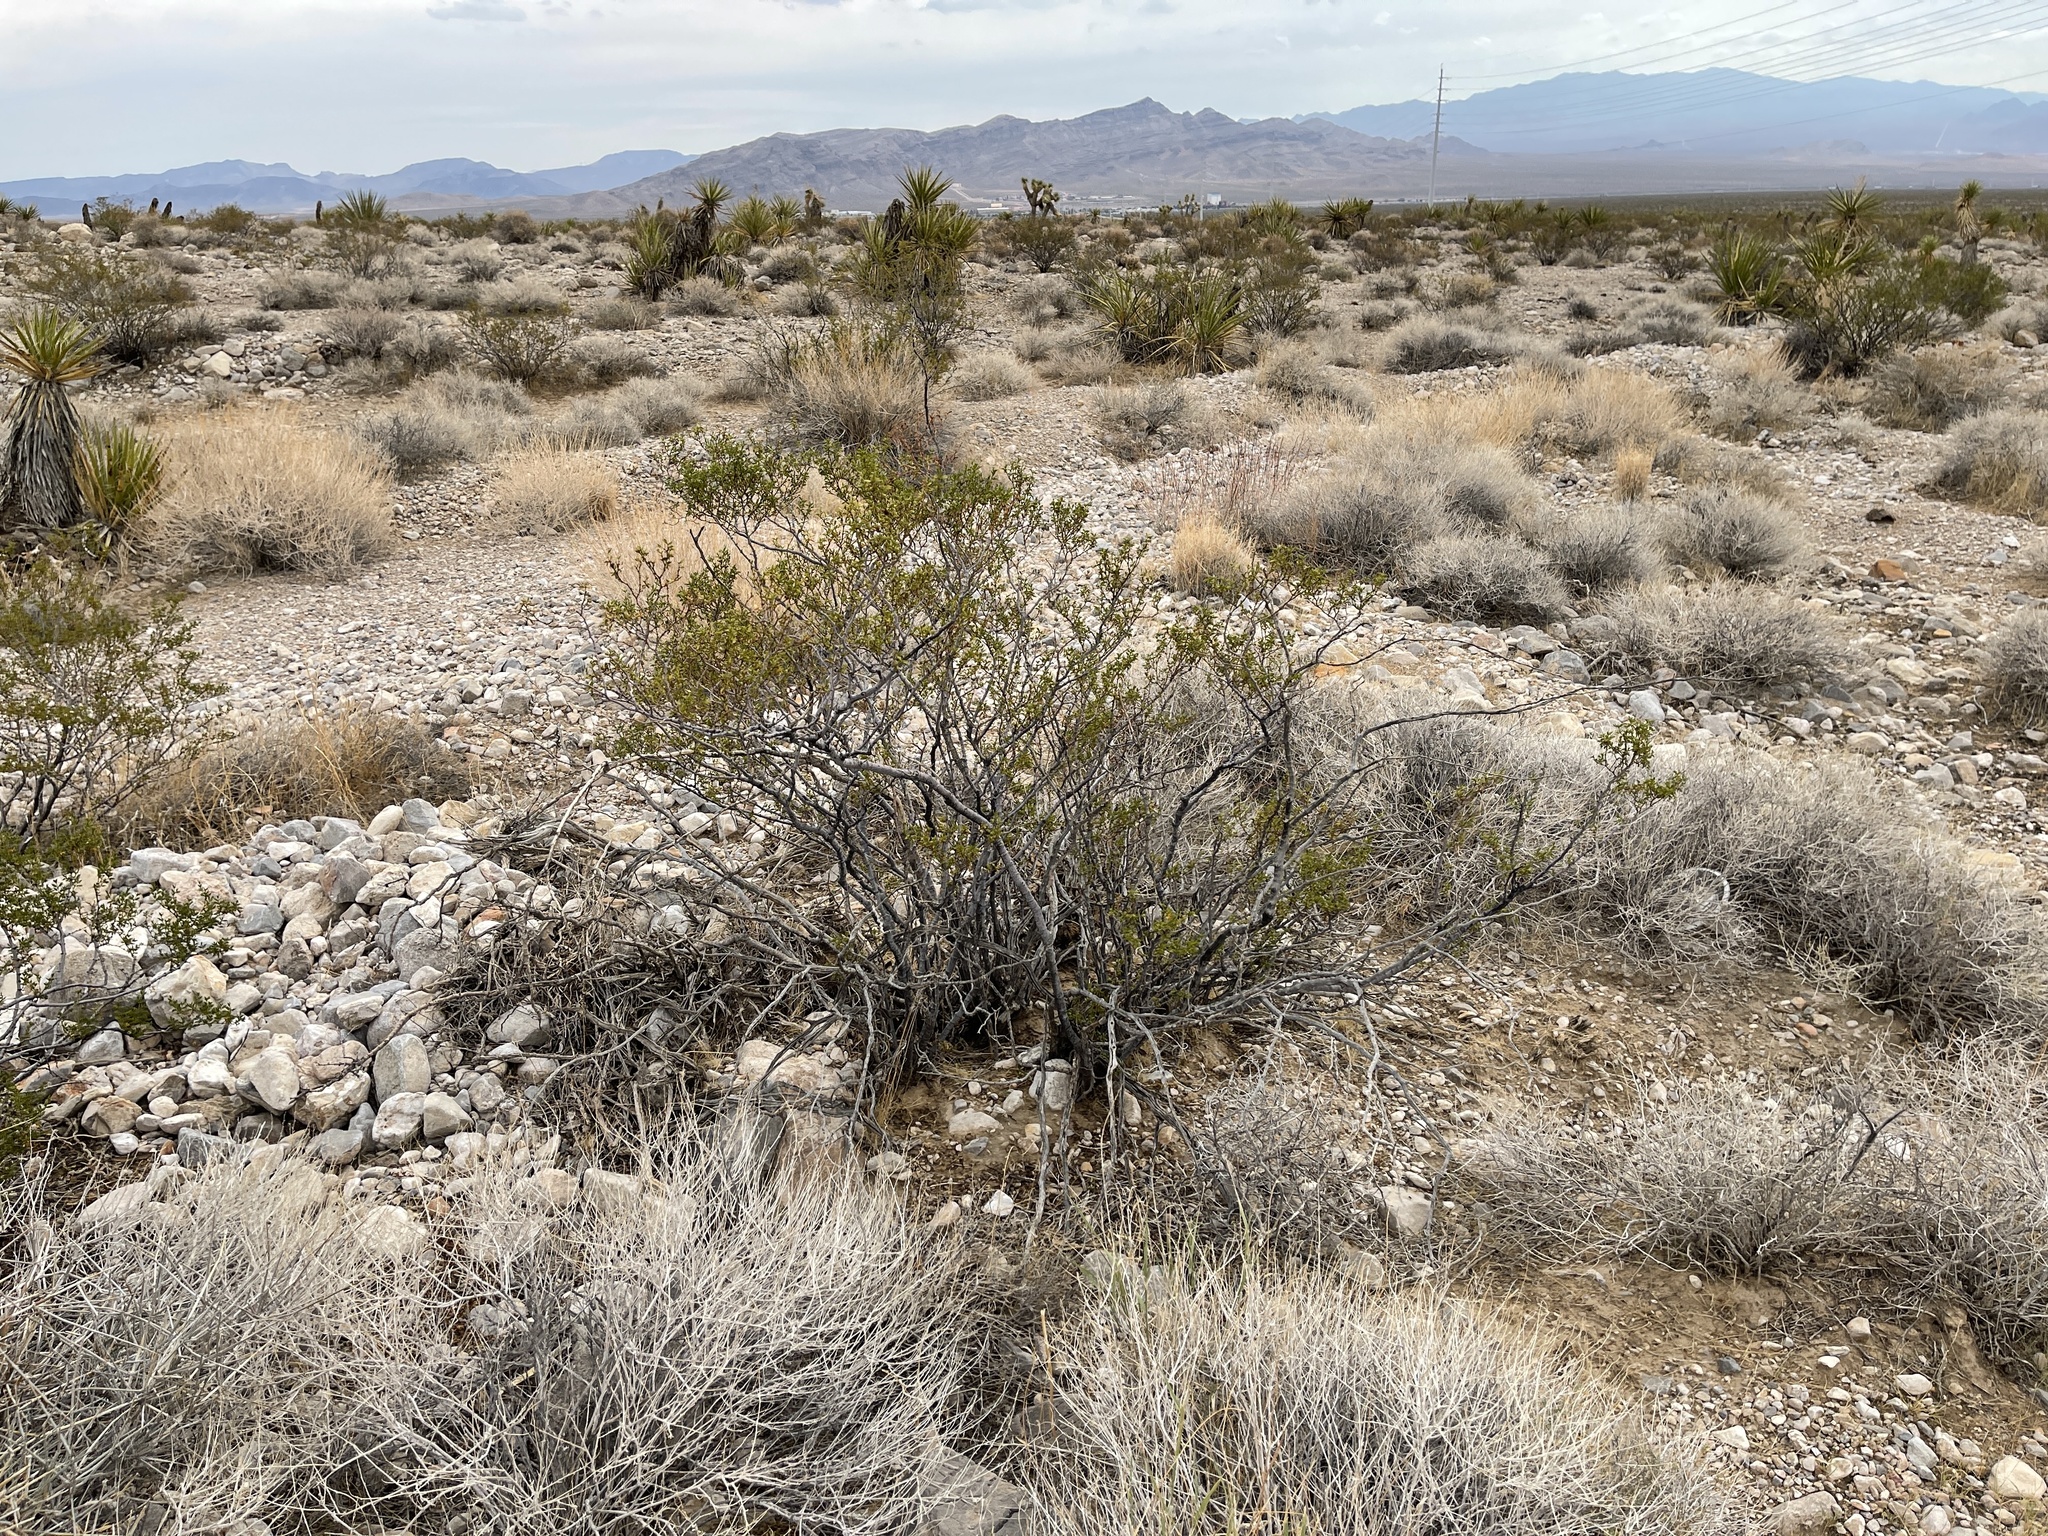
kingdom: Plantae
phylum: Tracheophyta
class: Magnoliopsida
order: Zygophyllales
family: Zygophyllaceae
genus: Larrea
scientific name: Larrea tridentata
